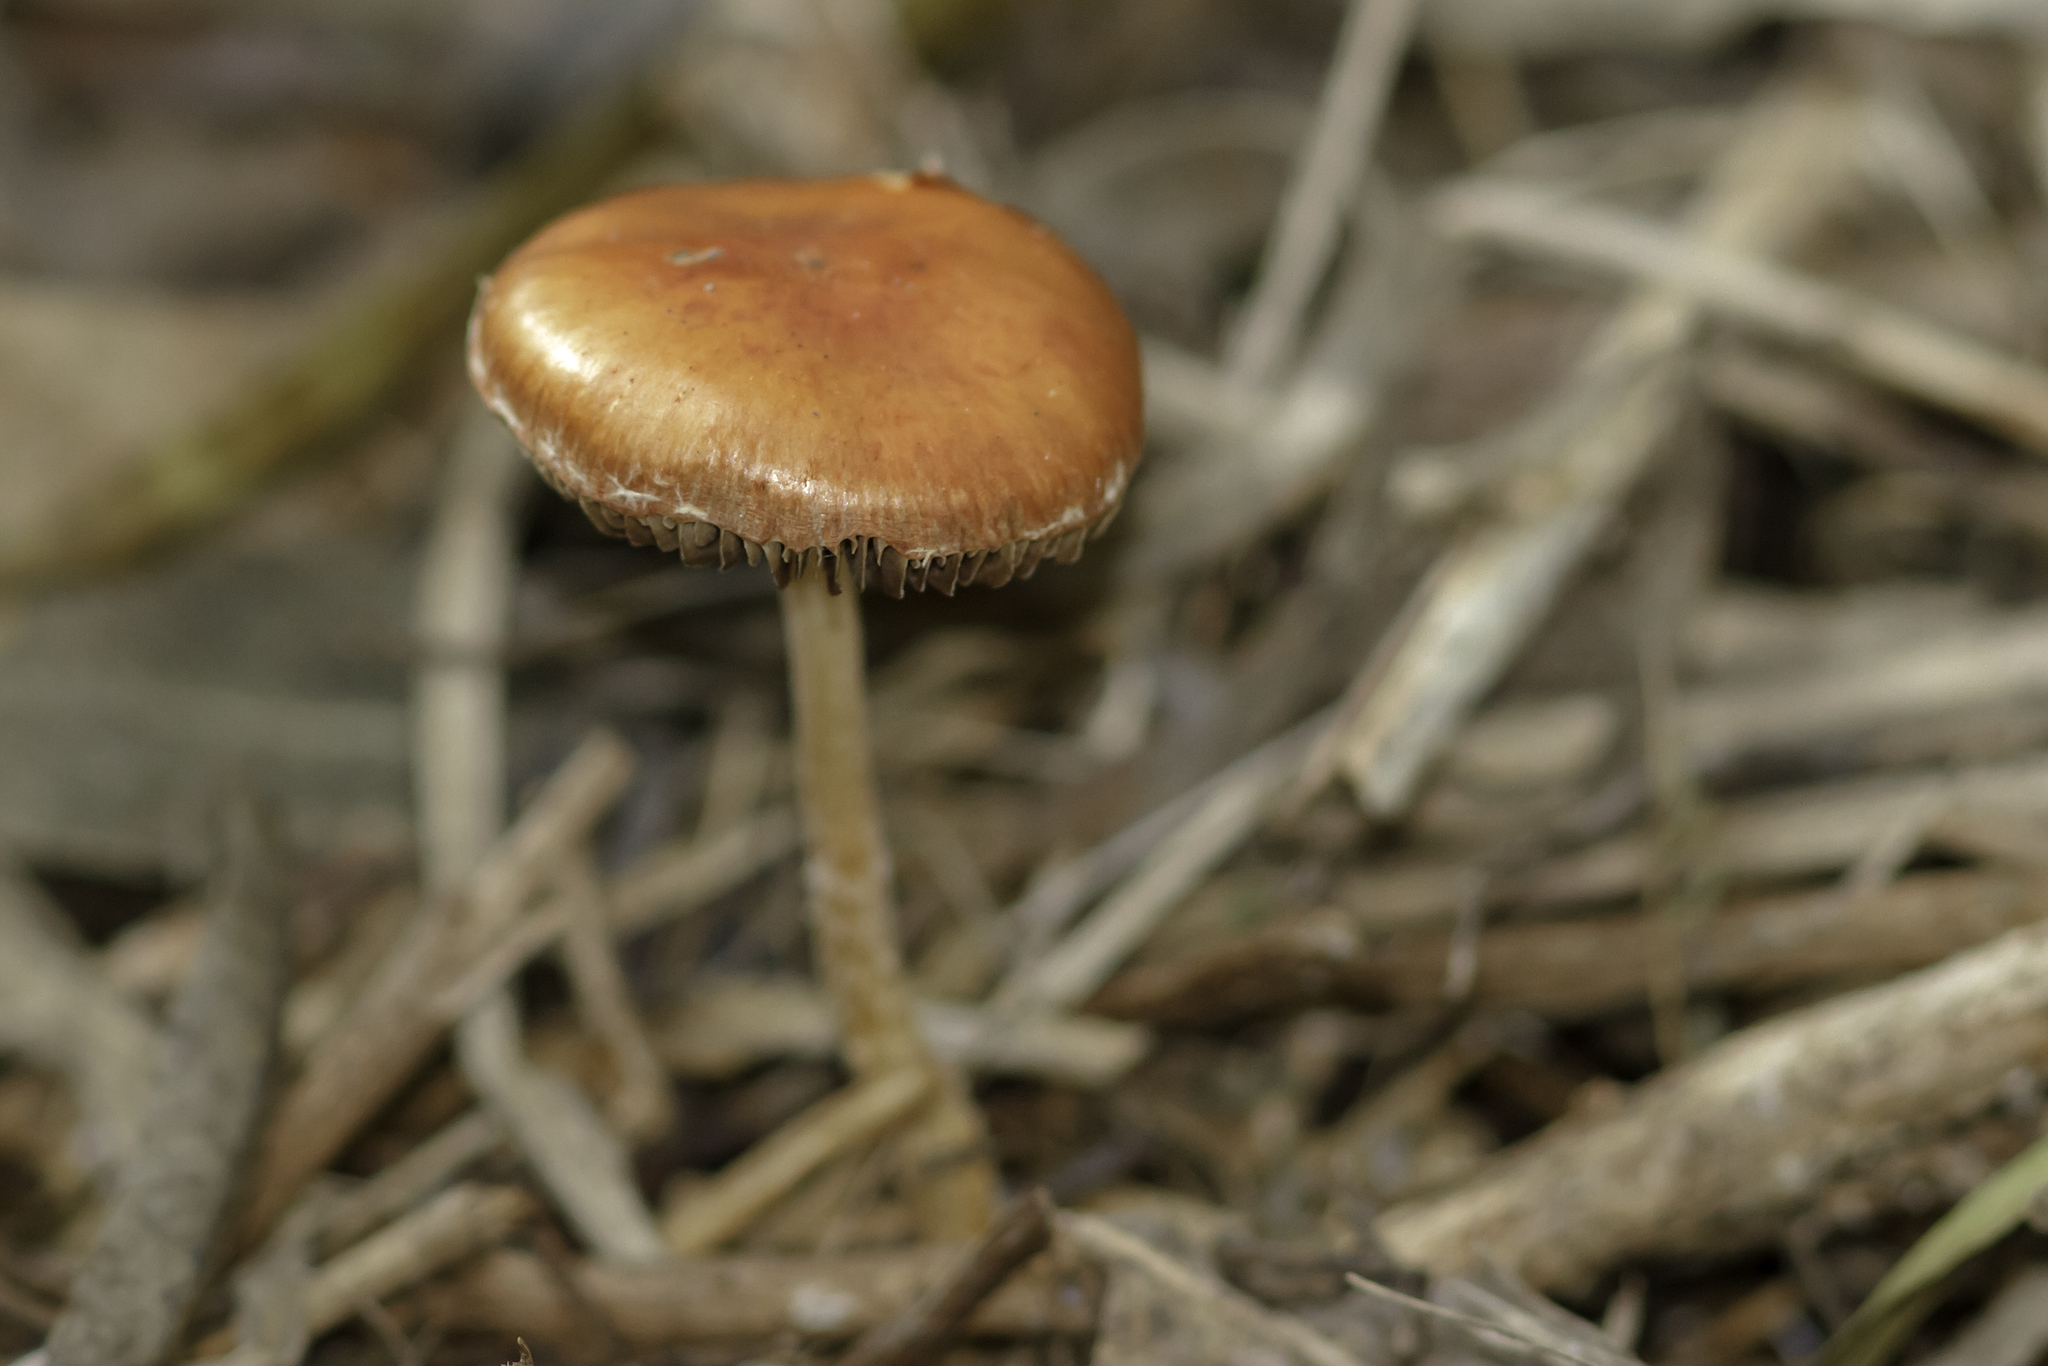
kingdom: Fungi
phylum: Basidiomycota
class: Agaricomycetes
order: Agaricales
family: Strophariaceae
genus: Leratiomyces
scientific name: Leratiomyces ceres
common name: Redlead roundhead
